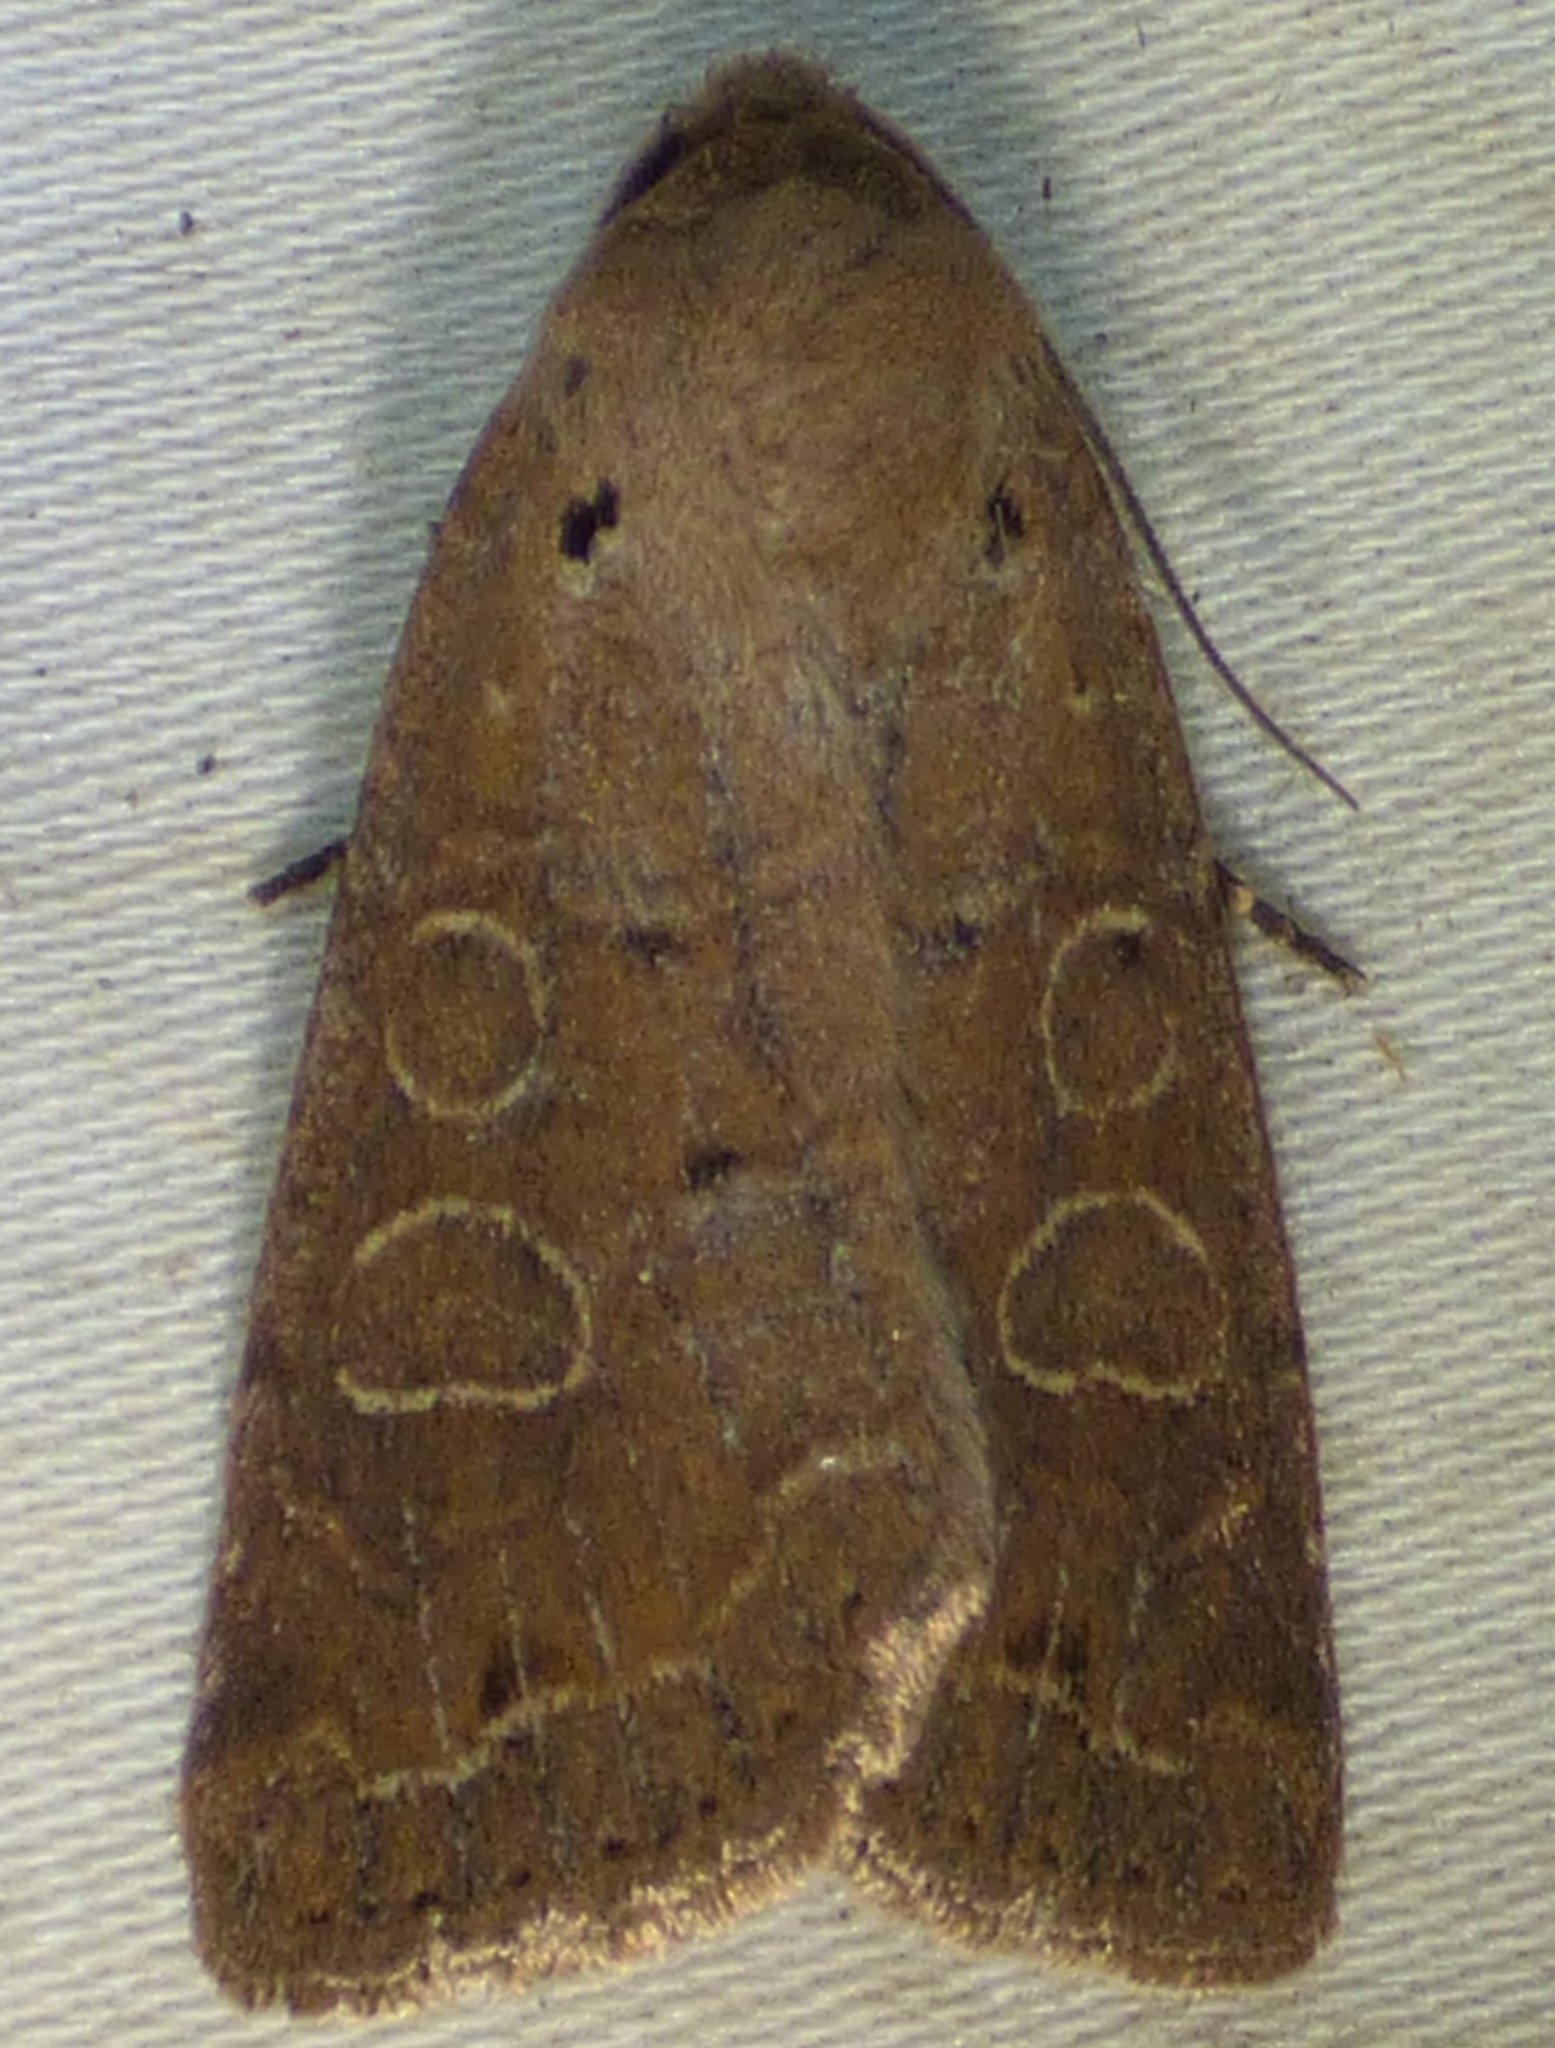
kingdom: Animalia
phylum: Arthropoda
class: Insecta
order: Lepidoptera
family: Noctuidae
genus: Kocakina
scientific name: Kocakina fidelis
